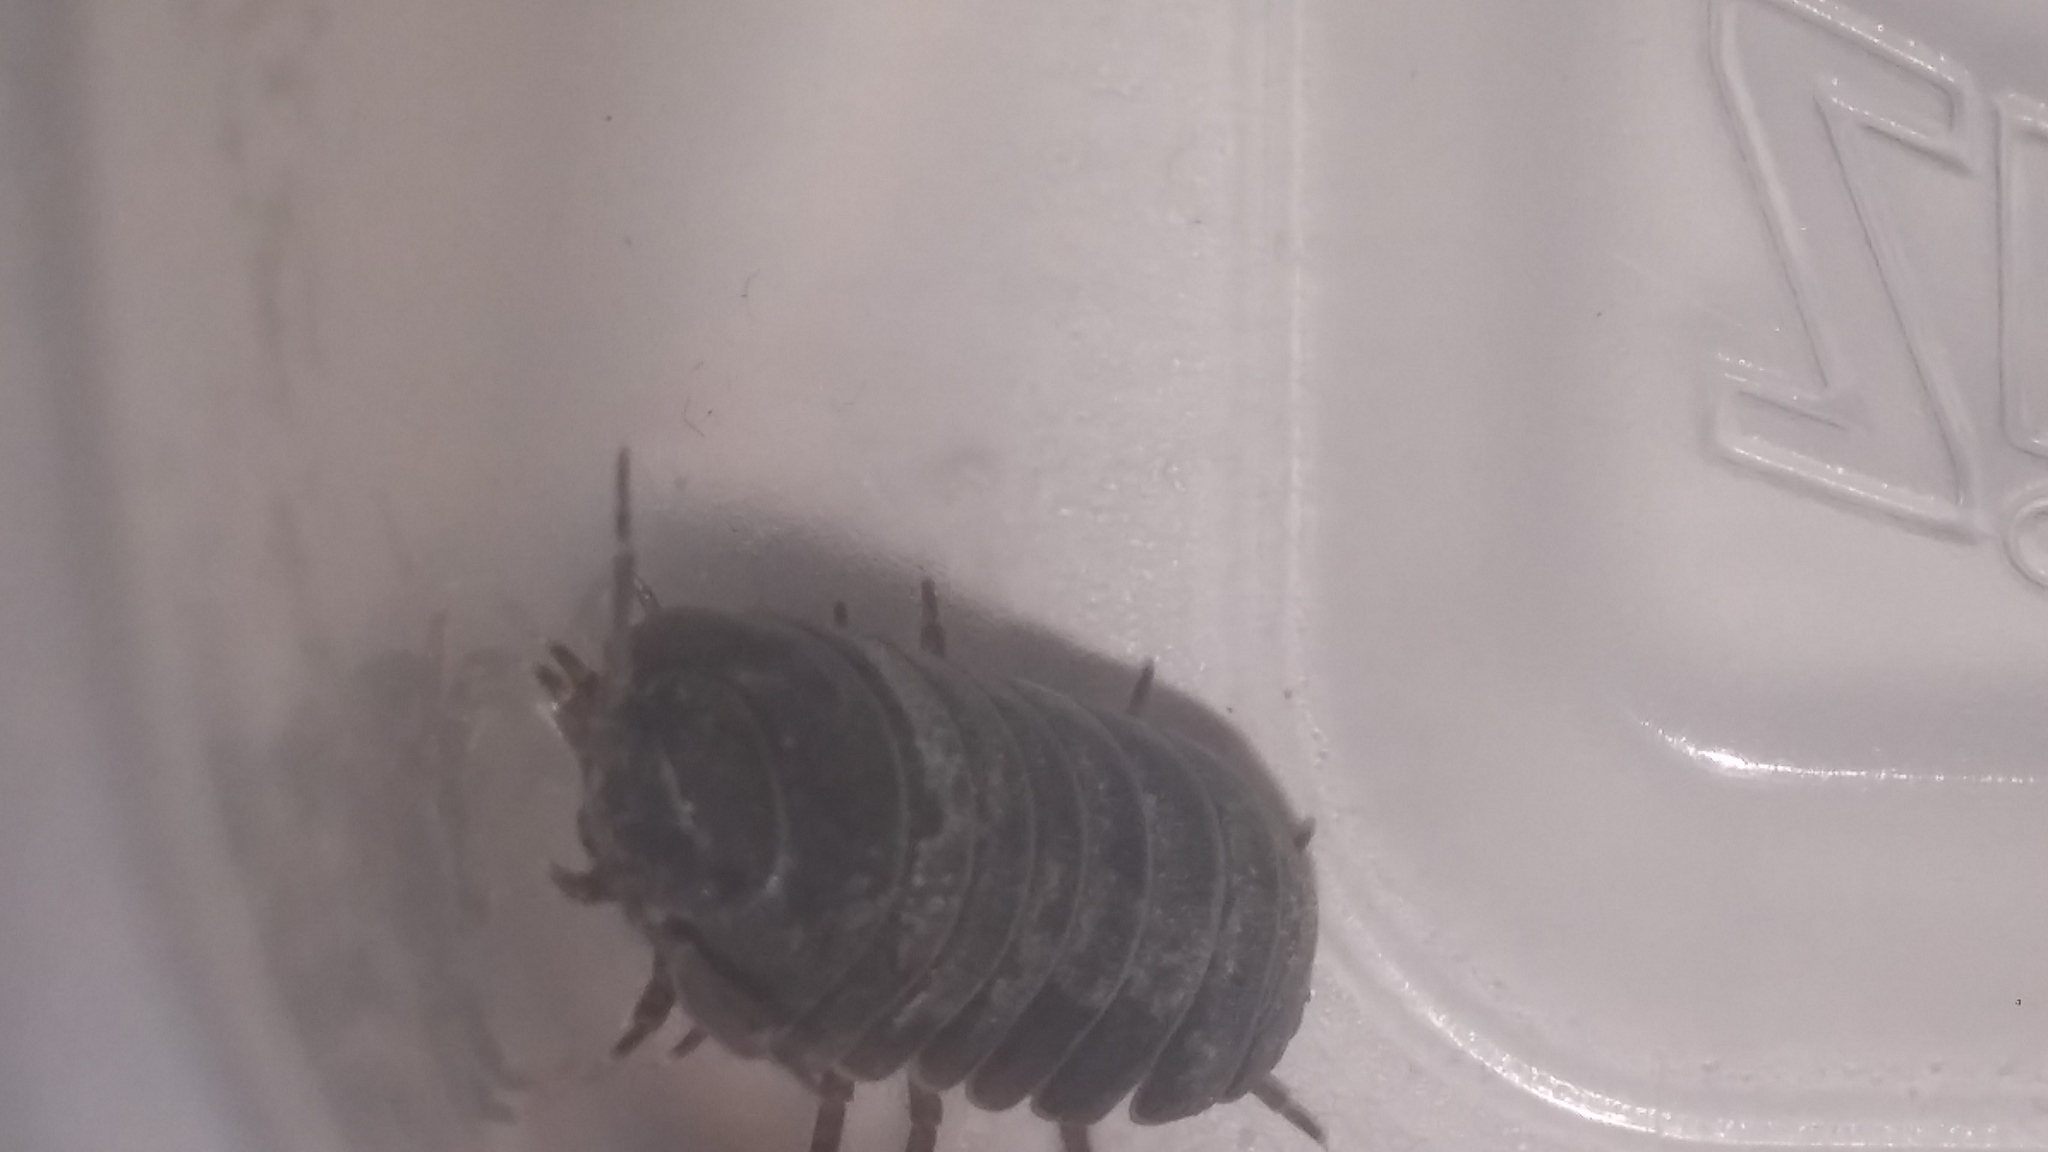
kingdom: Animalia
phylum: Arthropoda
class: Malacostraca
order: Isopoda
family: Armadillidiidae
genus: Armadillidium
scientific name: Armadillidium vulgare
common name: Common pill woodlouse
